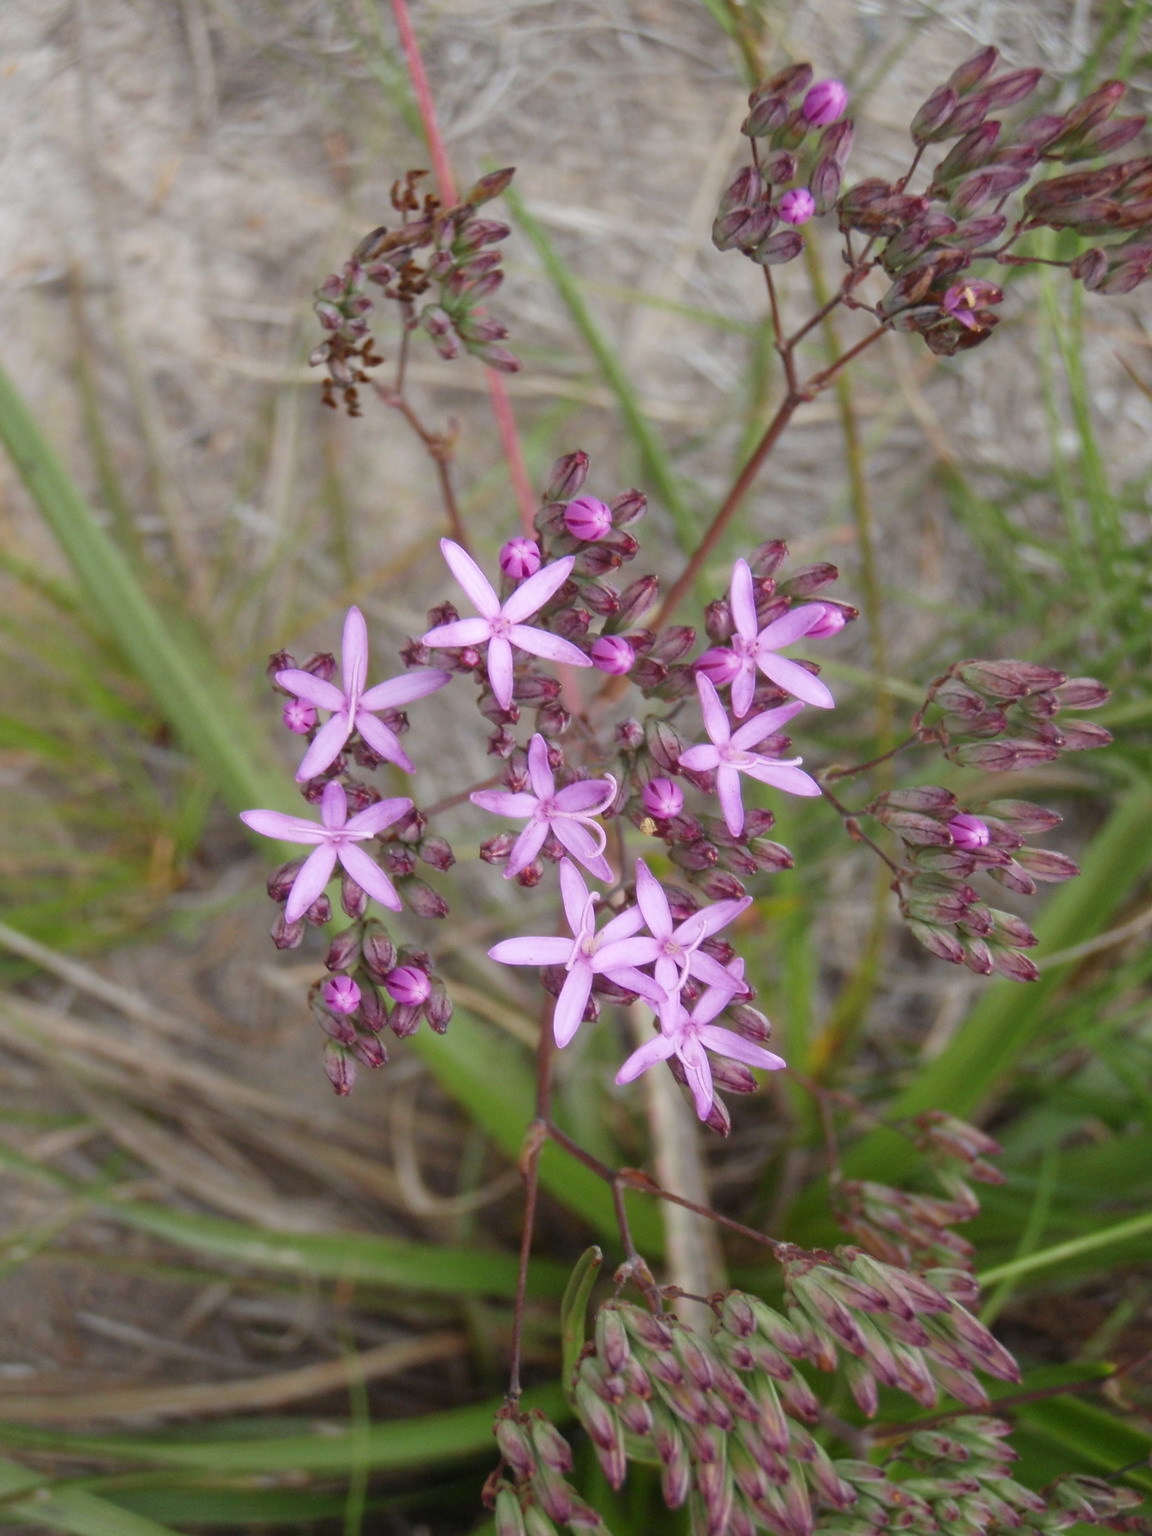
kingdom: Plantae
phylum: Tracheophyta
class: Magnoliopsida
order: Asterales
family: Asteraceae
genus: Corymbium
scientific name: Corymbium glabrum
